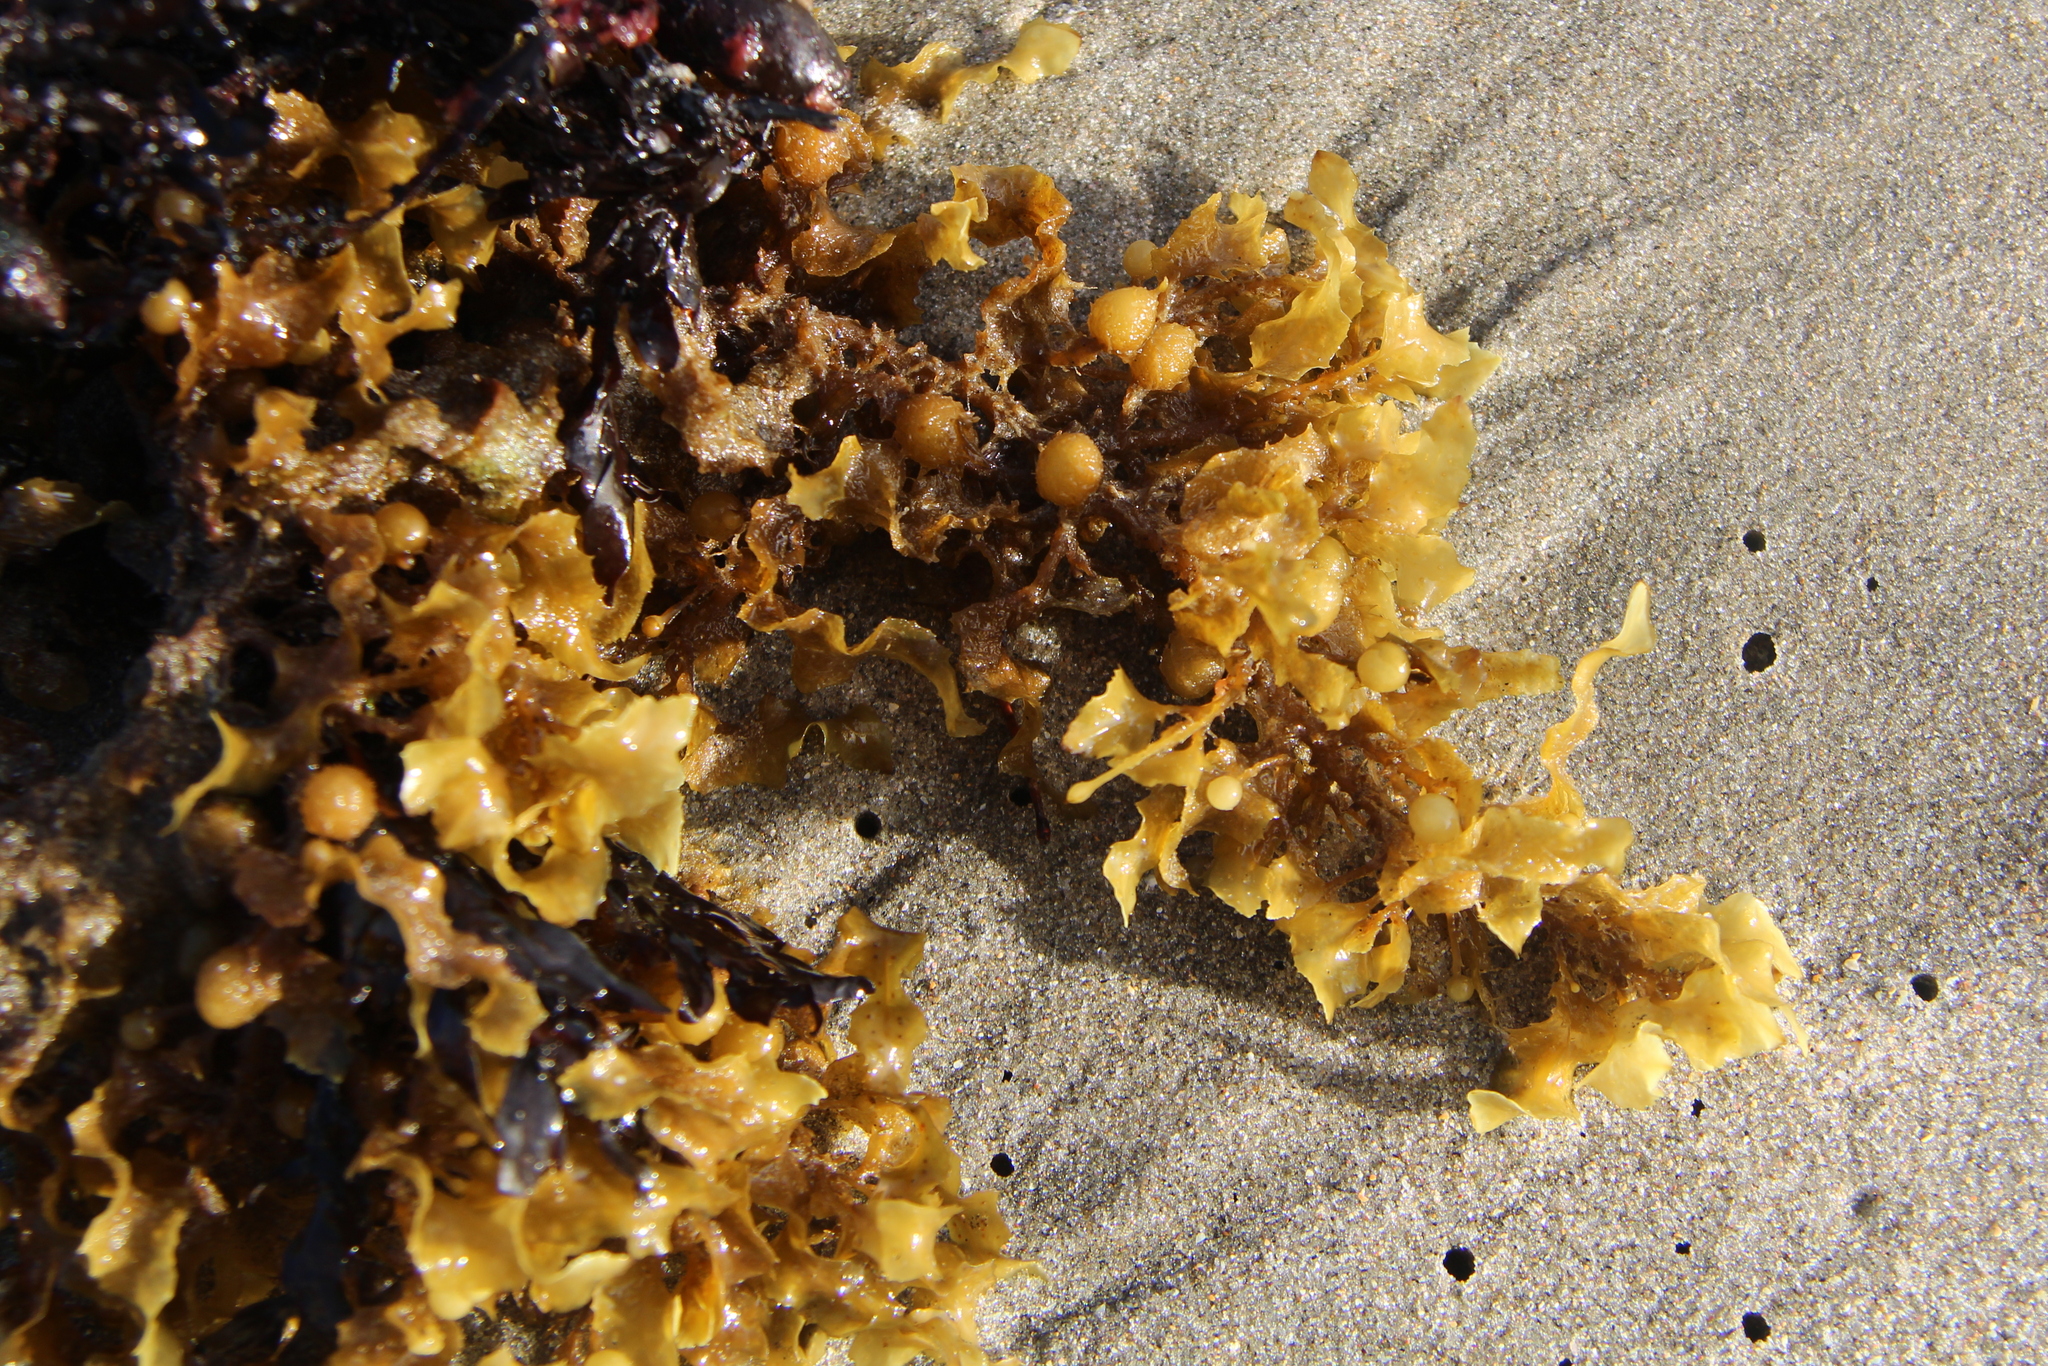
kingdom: Chromista
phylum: Ochrophyta
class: Phaeophyceae
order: Fucales
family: Sargassaceae
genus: Sargassum
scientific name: Sargassum scabridum
